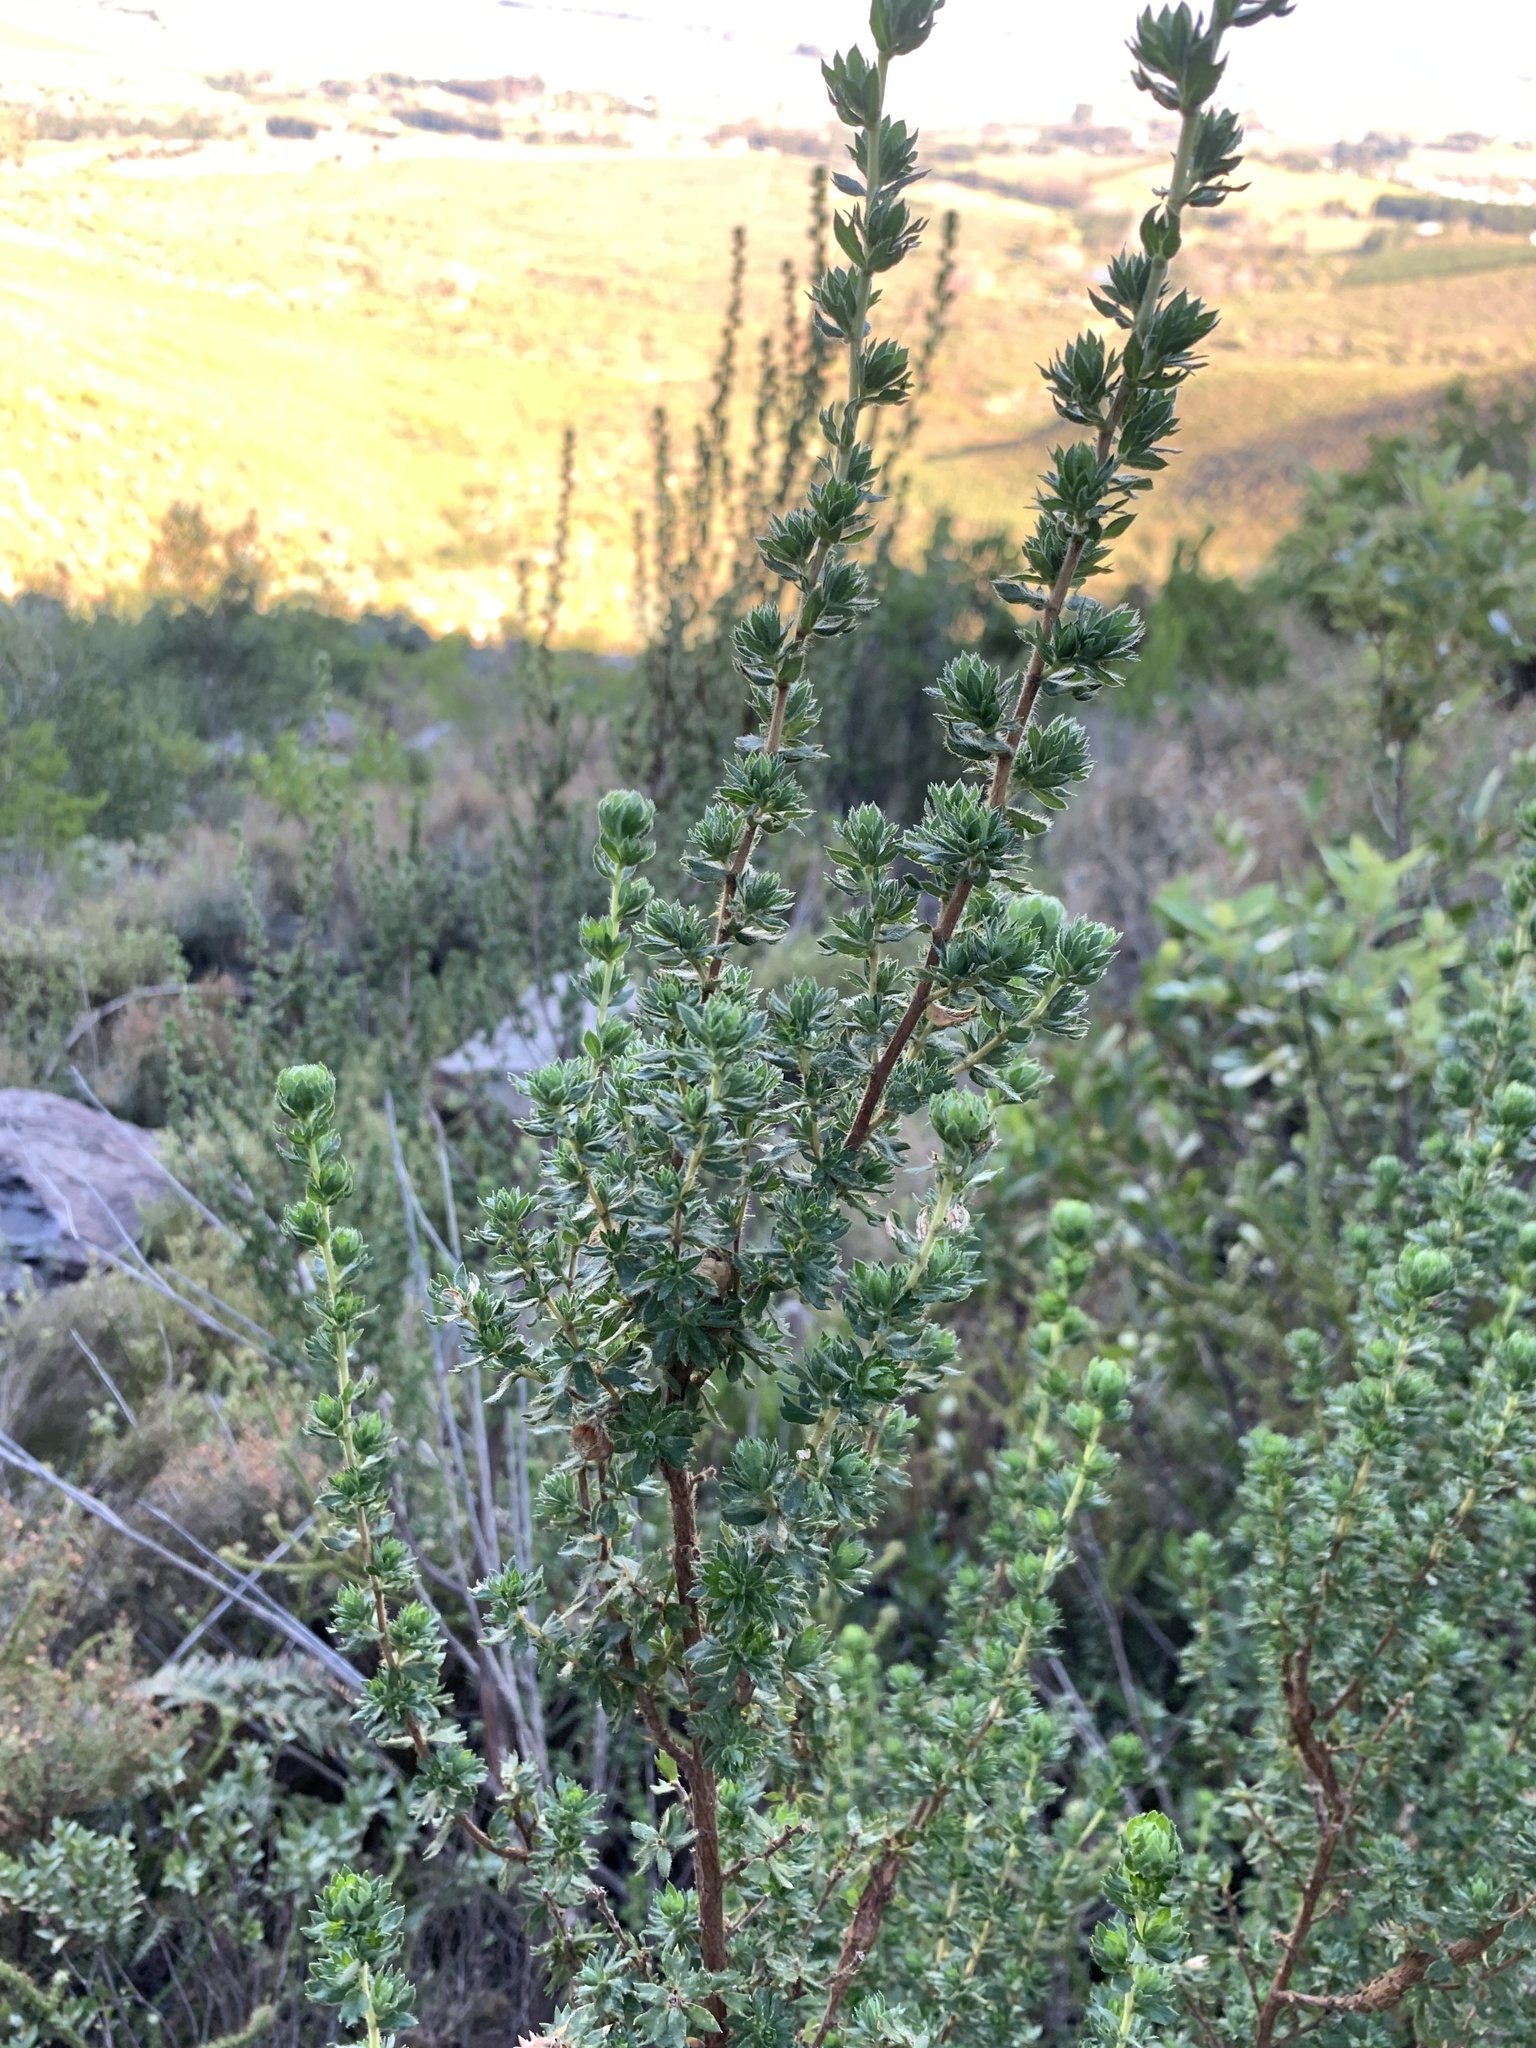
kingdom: Plantae
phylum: Tracheophyta
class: Magnoliopsida
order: Rosales
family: Rosaceae
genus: Cliffortia
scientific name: Cliffortia polygonifolia
